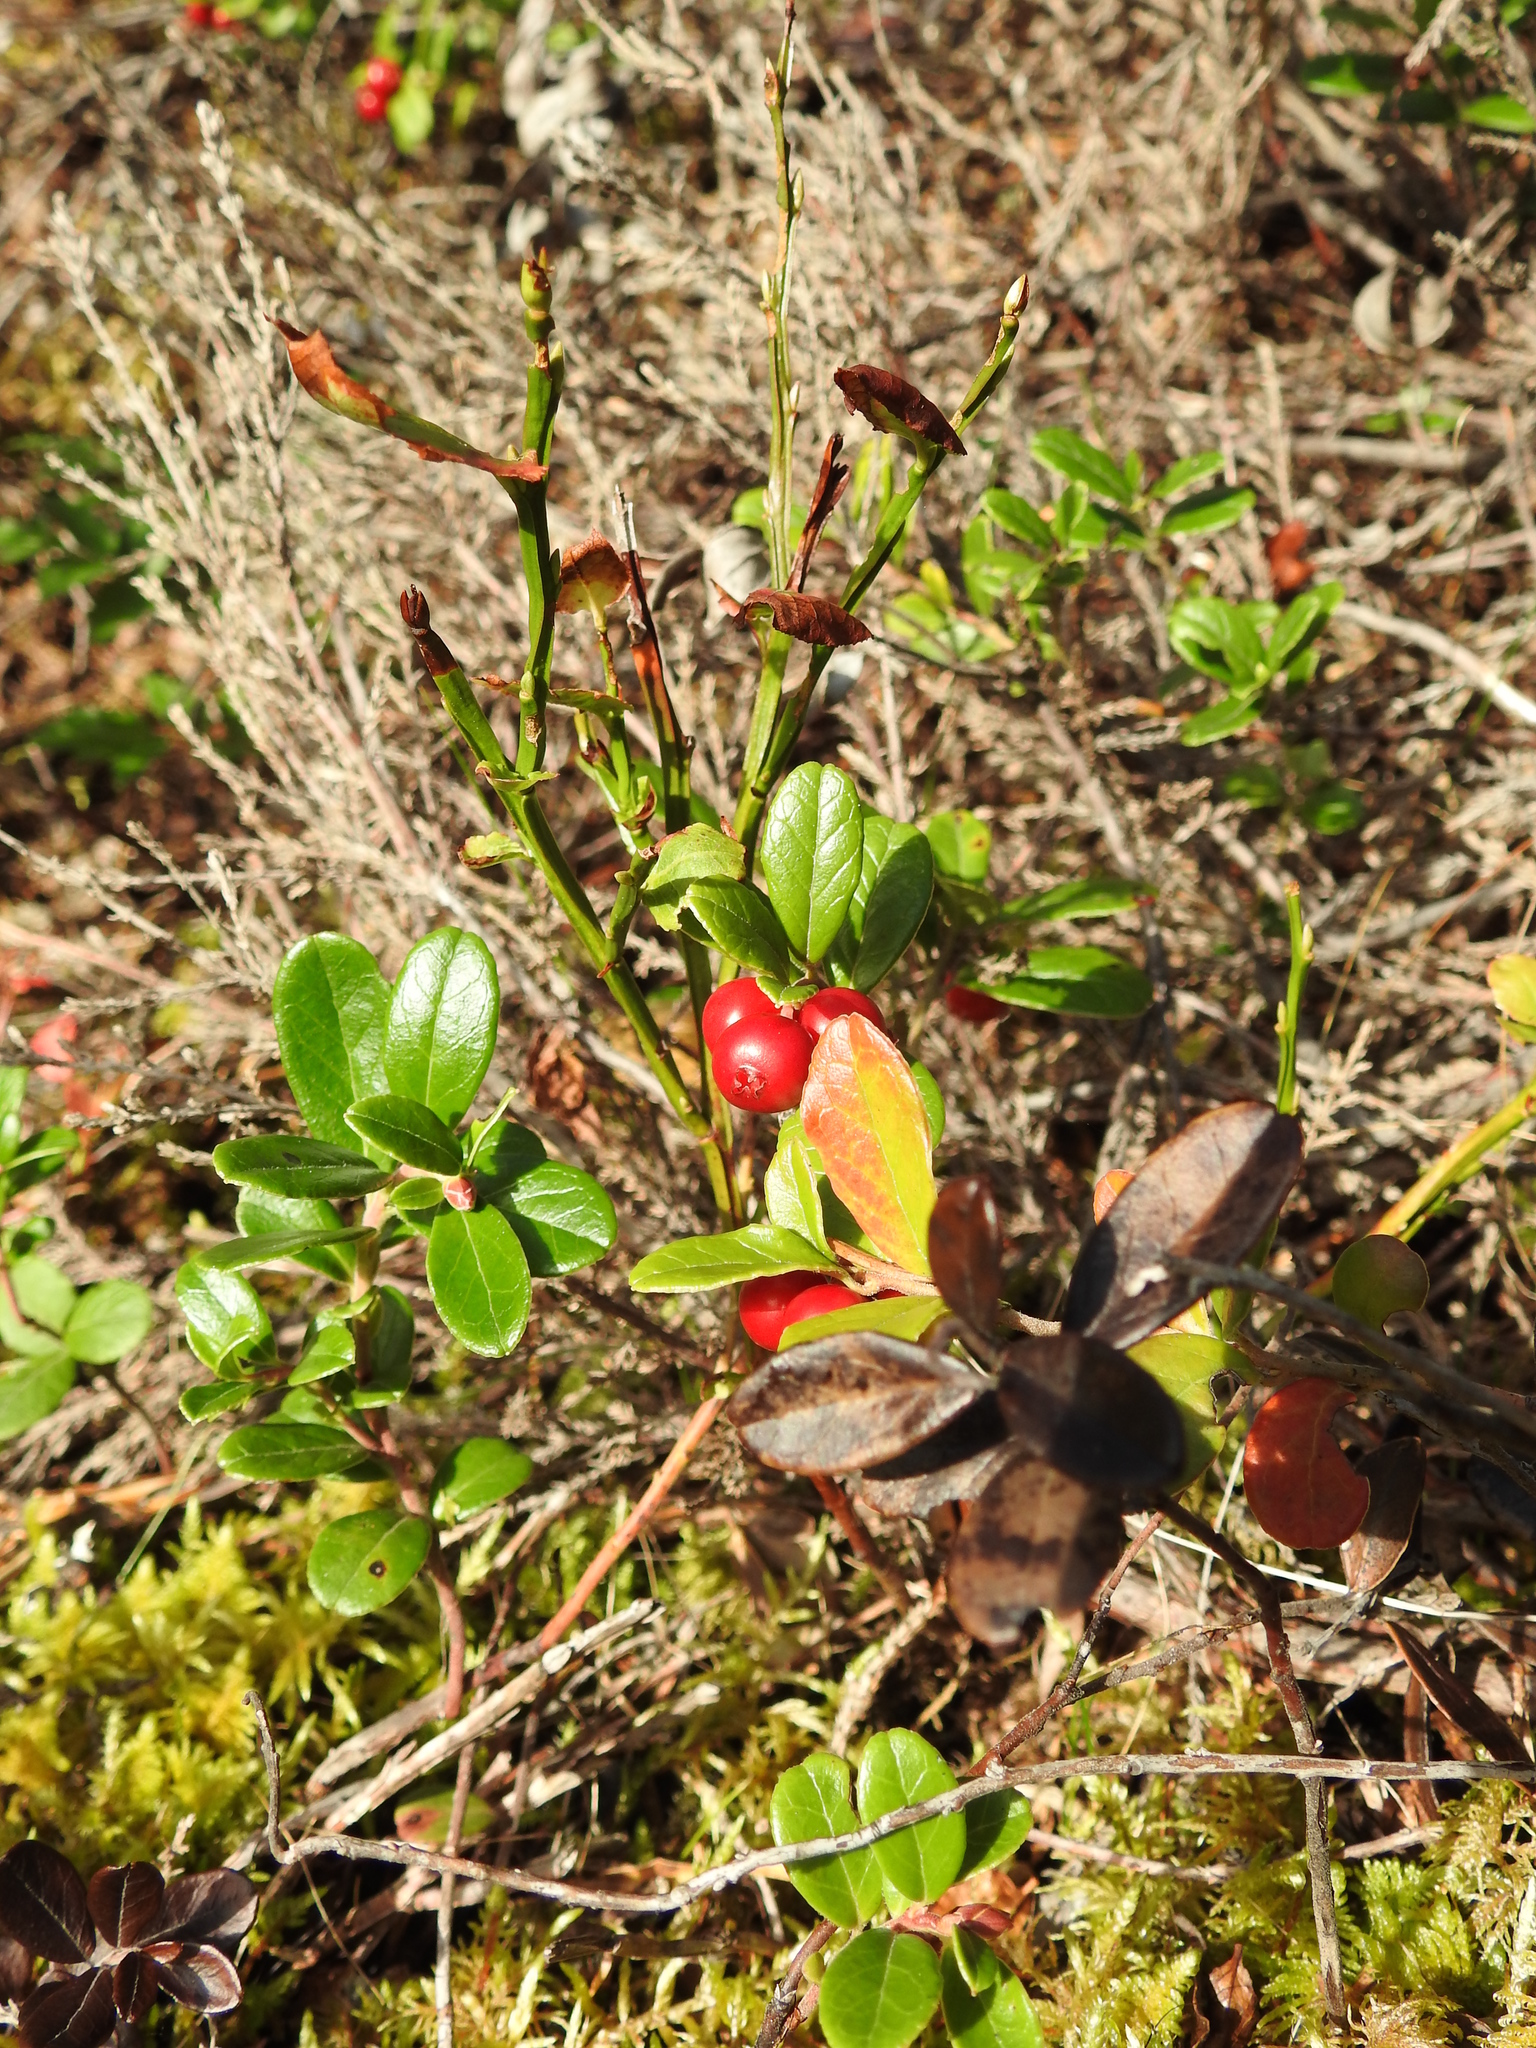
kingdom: Plantae
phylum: Tracheophyta
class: Magnoliopsida
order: Ericales
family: Ericaceae
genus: Vaccinium
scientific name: Vaccinium vitis-idaea
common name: Cowberry
